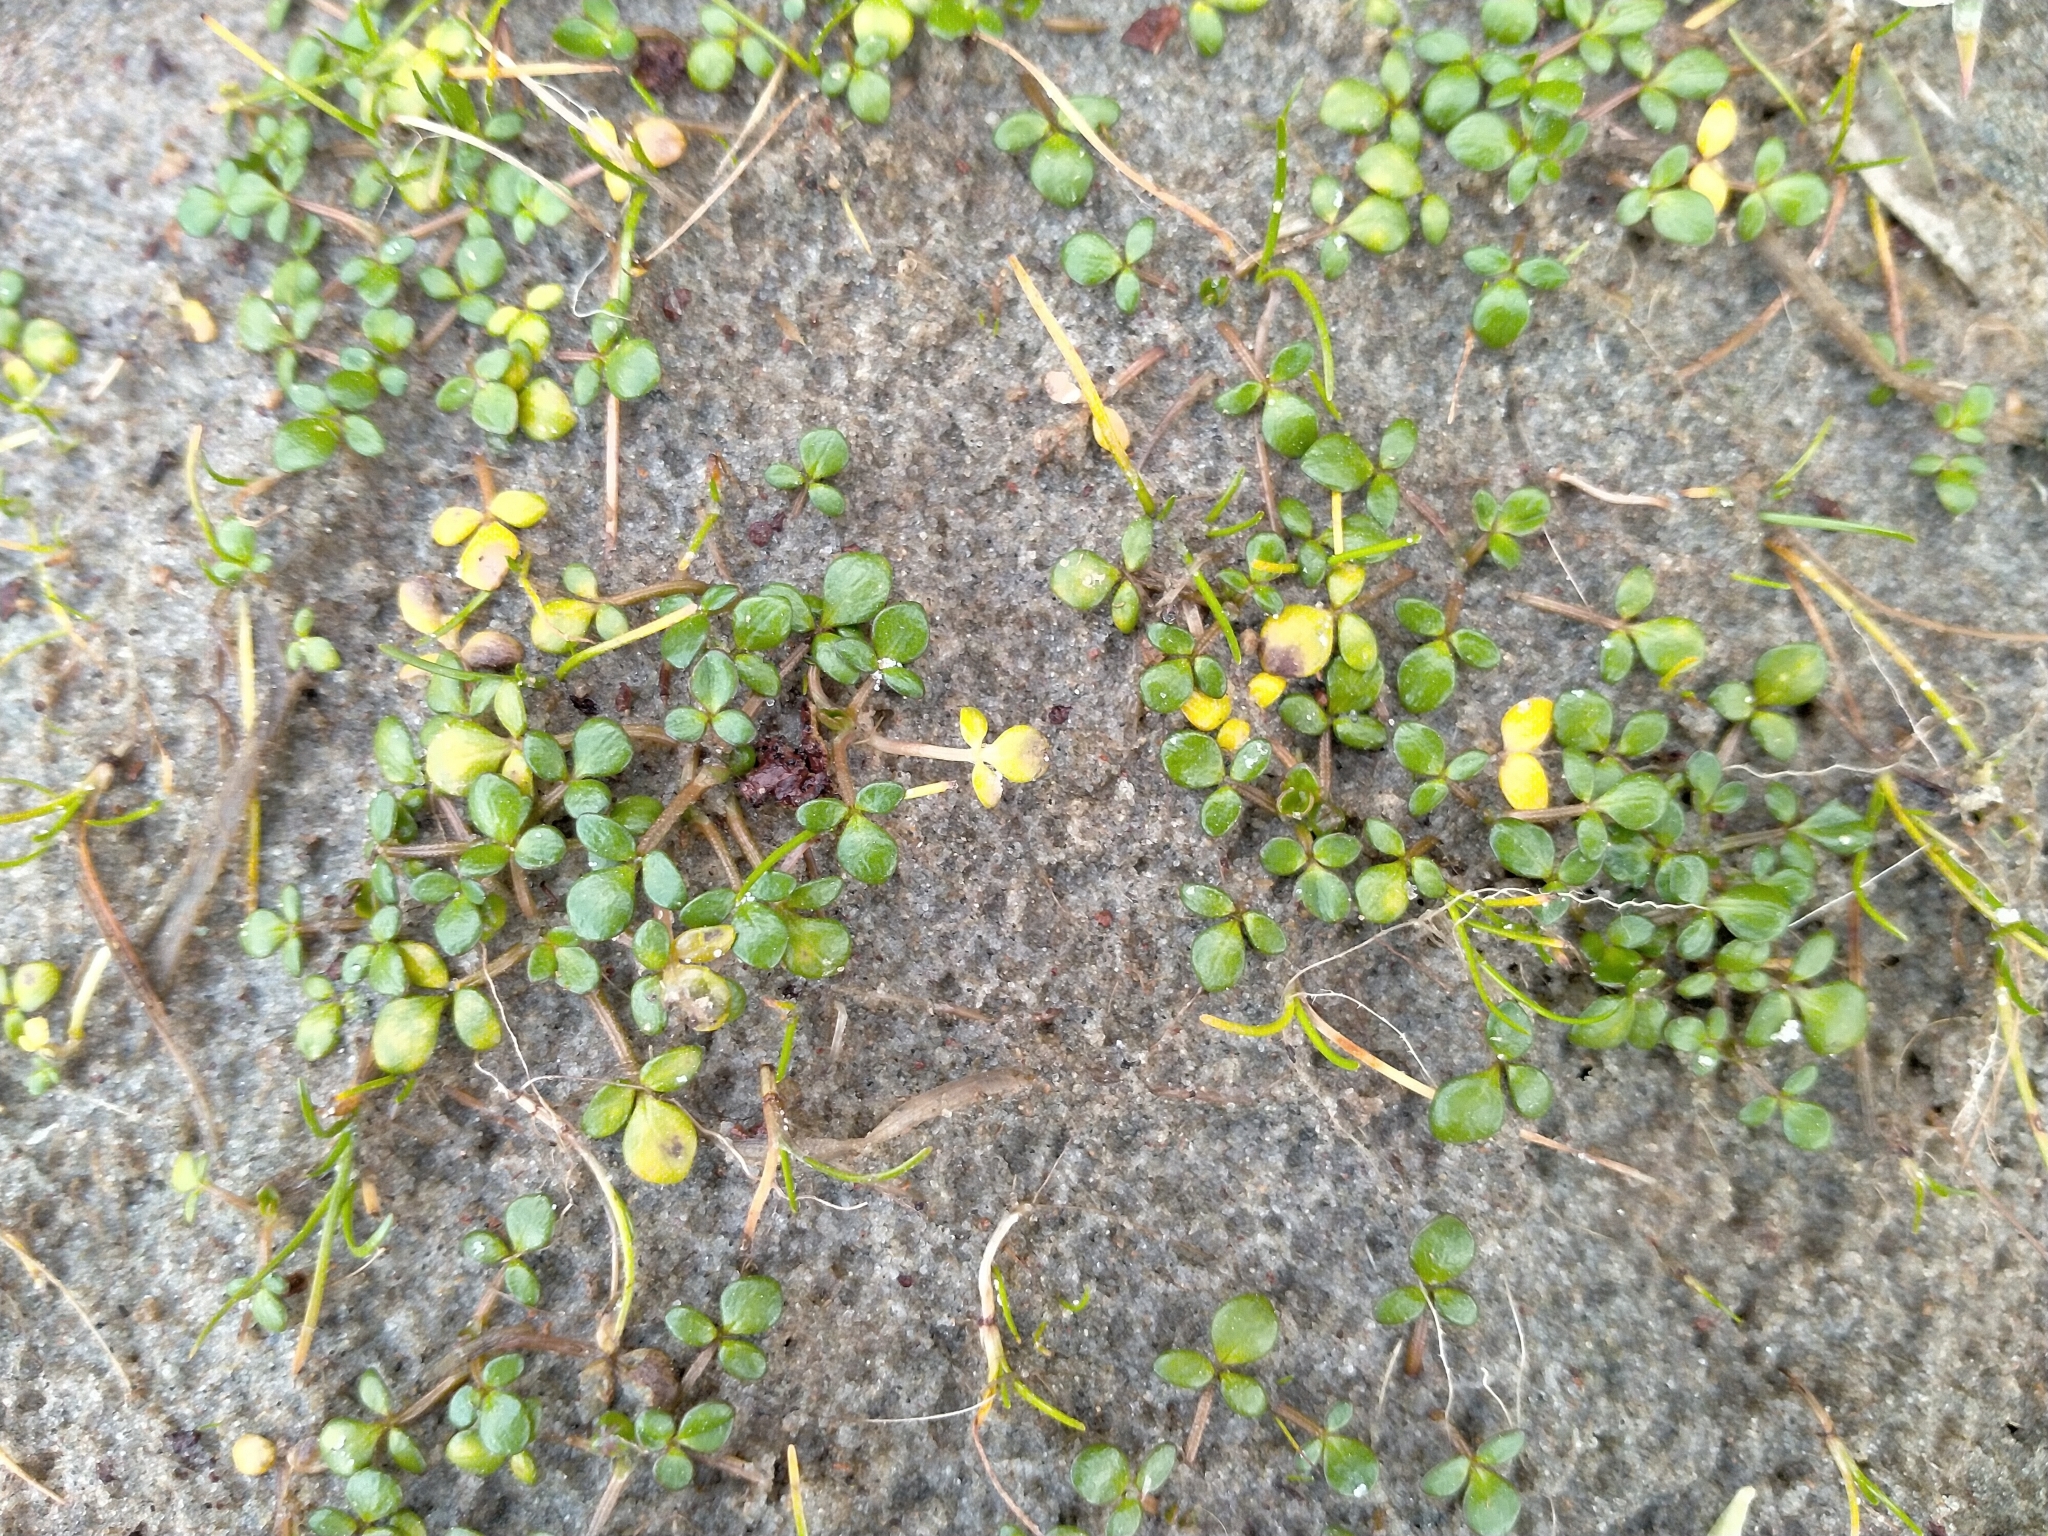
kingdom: Plantae
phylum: Tracheophyta
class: Magnoliopsida
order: Ranunculales
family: Ranunculaceae
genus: Ranunculus
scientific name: Ranunculus acaulis
